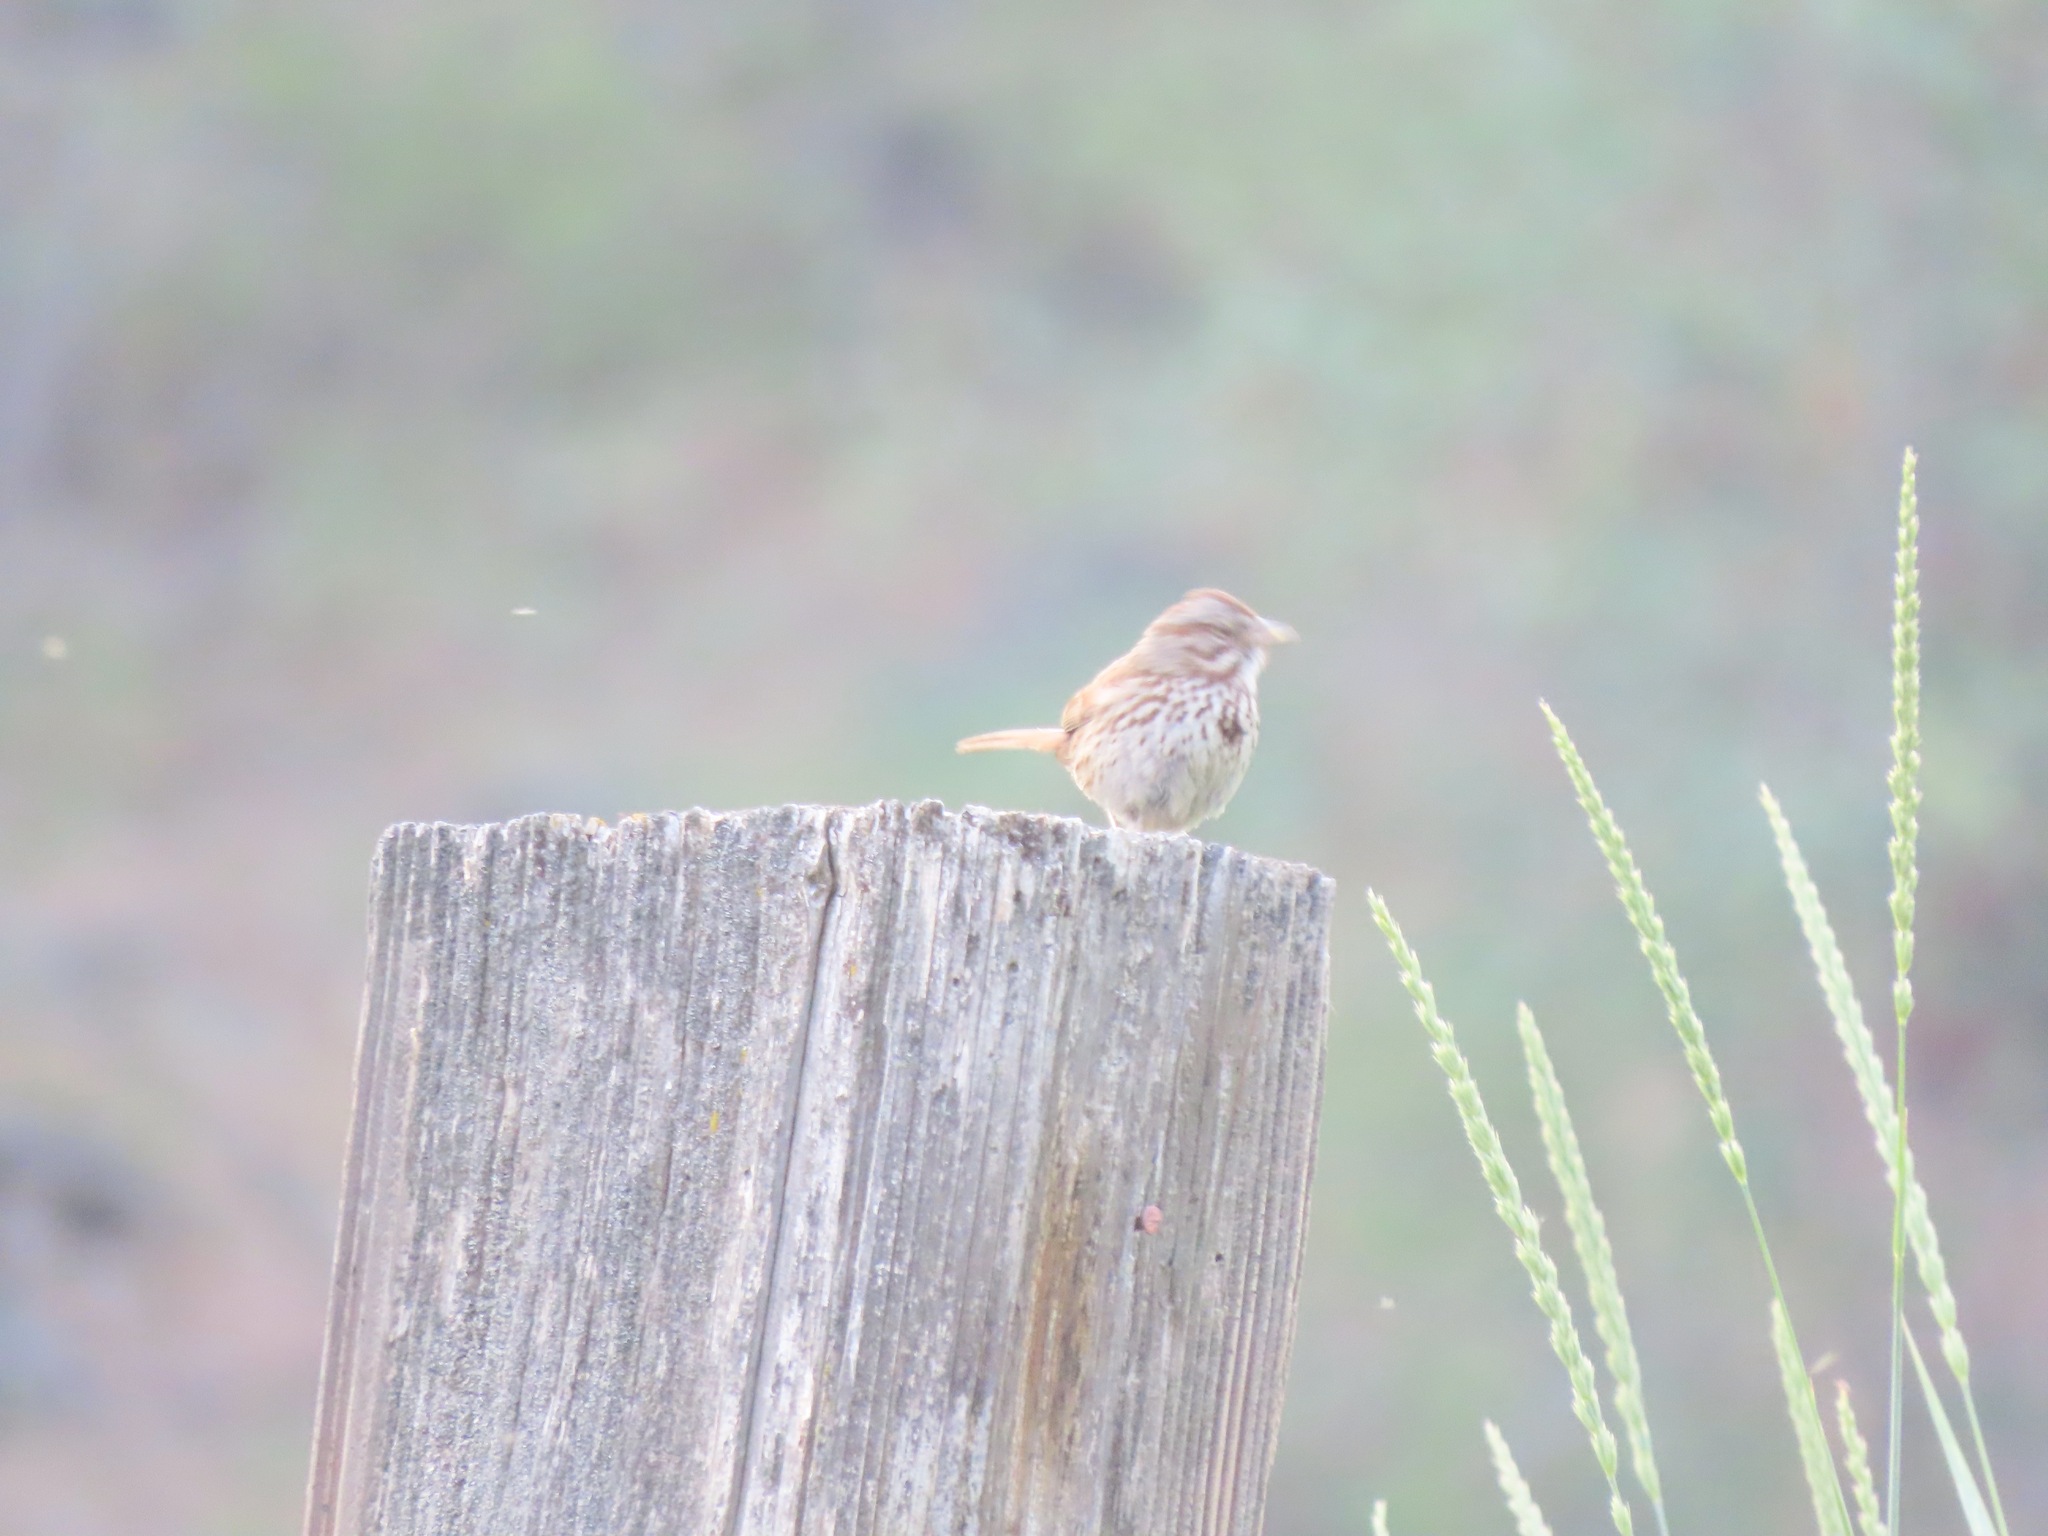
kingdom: Animalia
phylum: Chordata
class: Aves
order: Passeriformes
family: Passerellidae
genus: Melospiza
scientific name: Melospiza melodia
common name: Song sparrow
